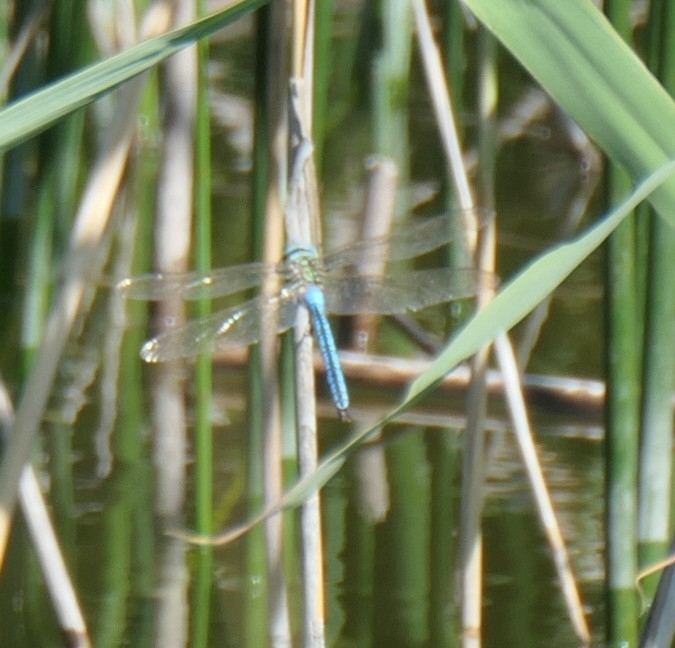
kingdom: Animalia
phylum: Arthropoda
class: Insecta
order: Odonata
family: Aeshnidae
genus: Anax
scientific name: Anax imperator
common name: Emperor dragonfly
